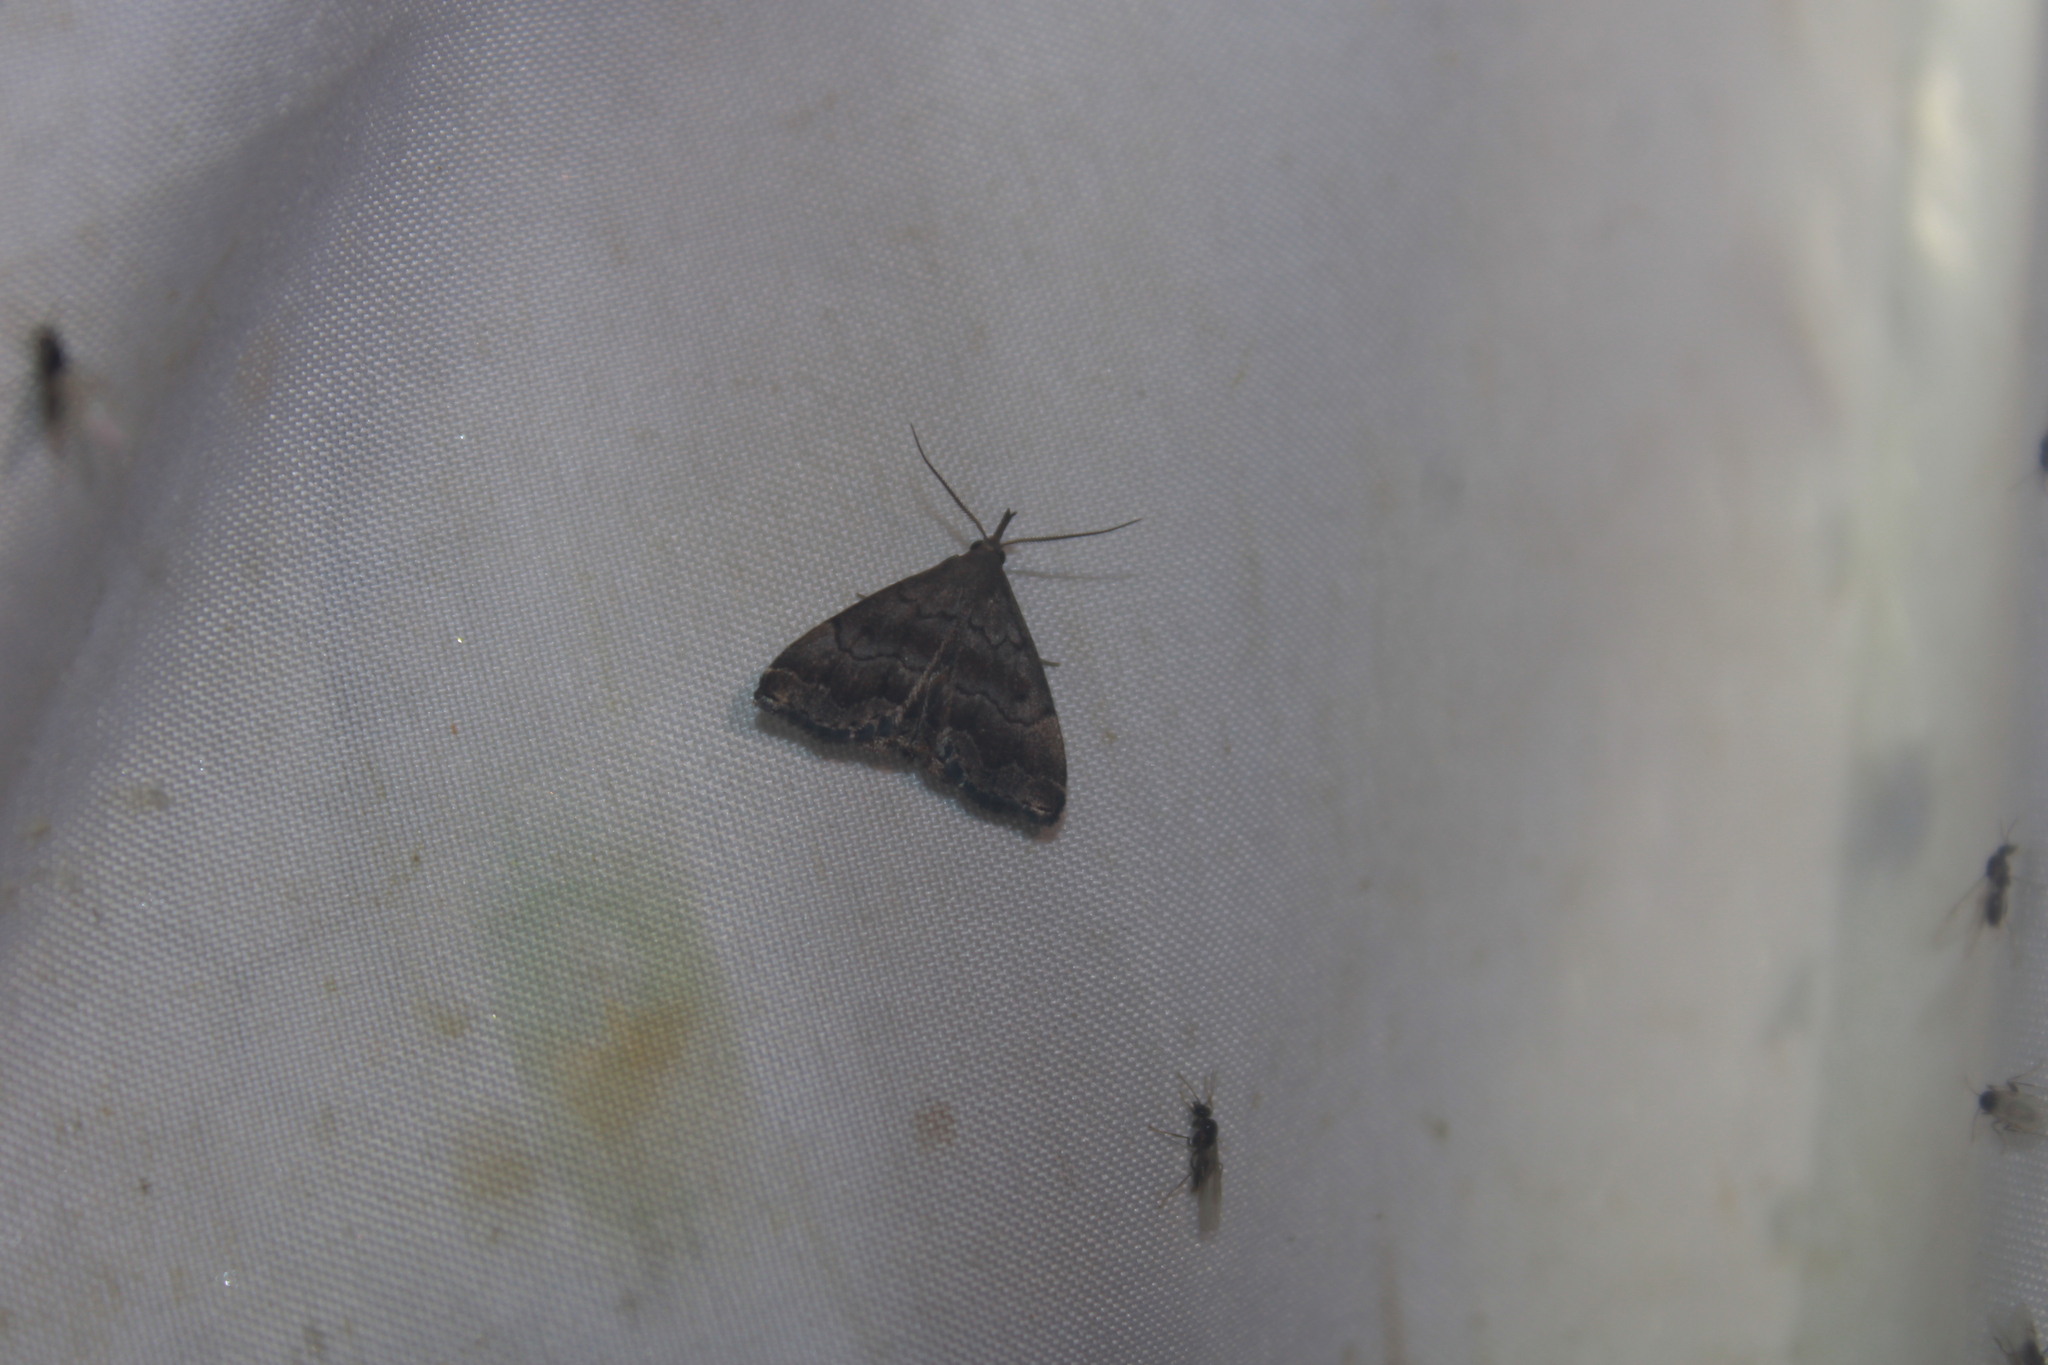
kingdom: Animalia
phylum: Arthropoda
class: Insecta
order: Lepidoptera
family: Erebidae
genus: Phalaenostola
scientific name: Phalaenostola larentioides
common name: Black-banded owlet
